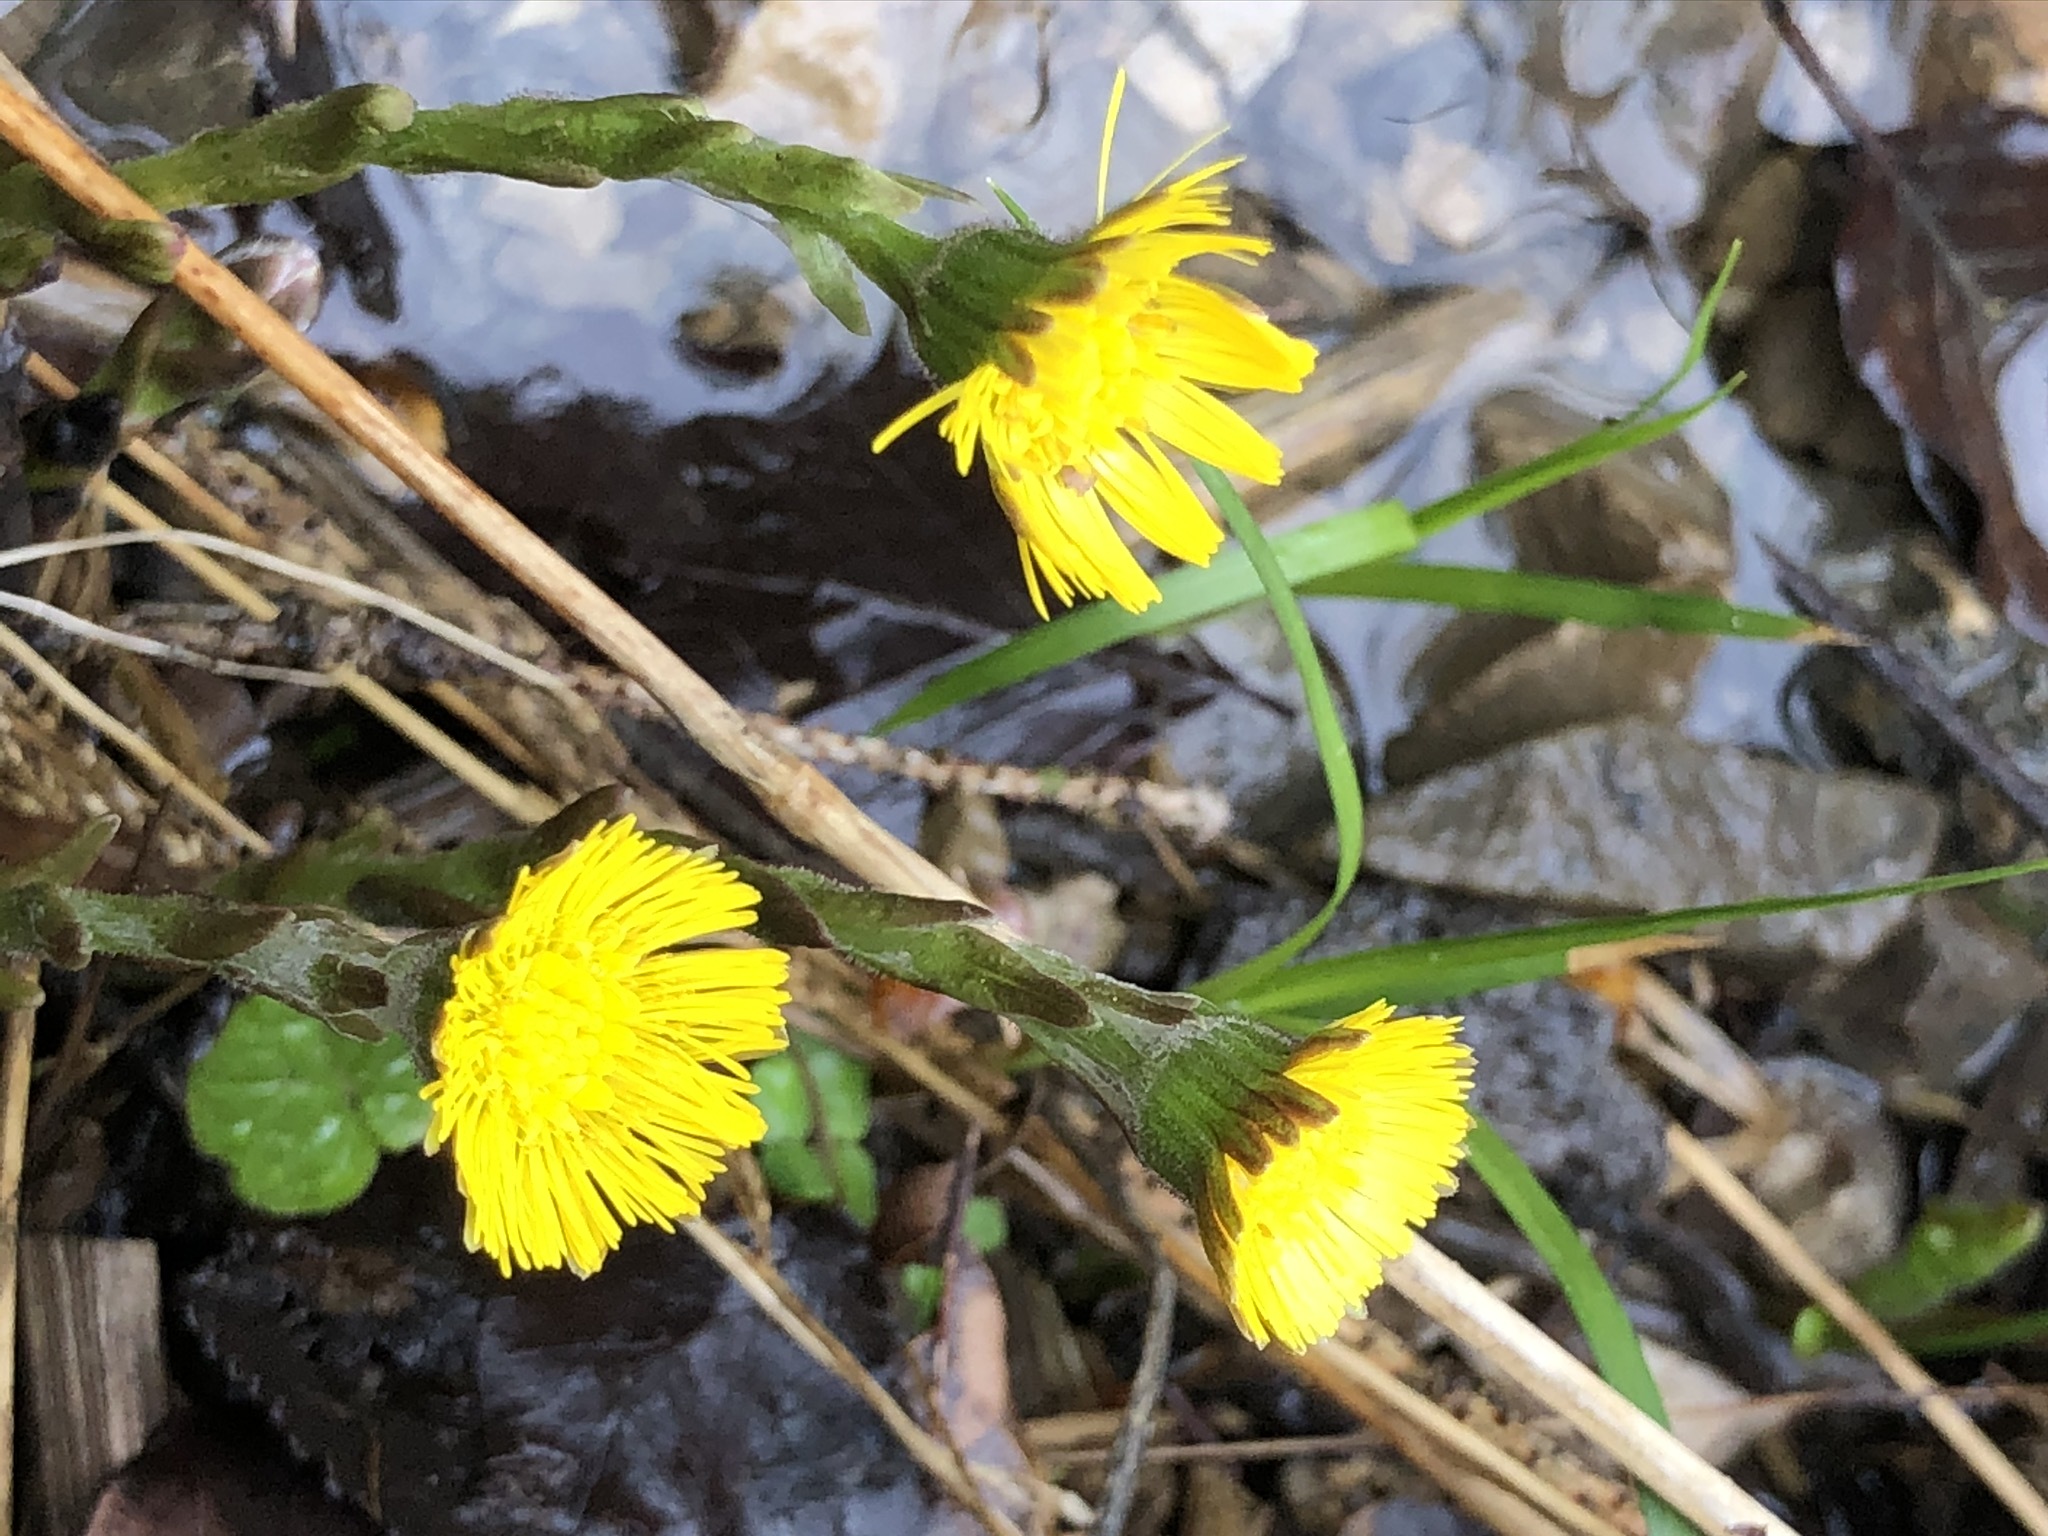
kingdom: Plantae
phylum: Tracheophyta
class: Magnoliopsida
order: Asterales
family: Asteraceae
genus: Tussilago
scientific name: Tussilago farfara
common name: Coltsfoot
